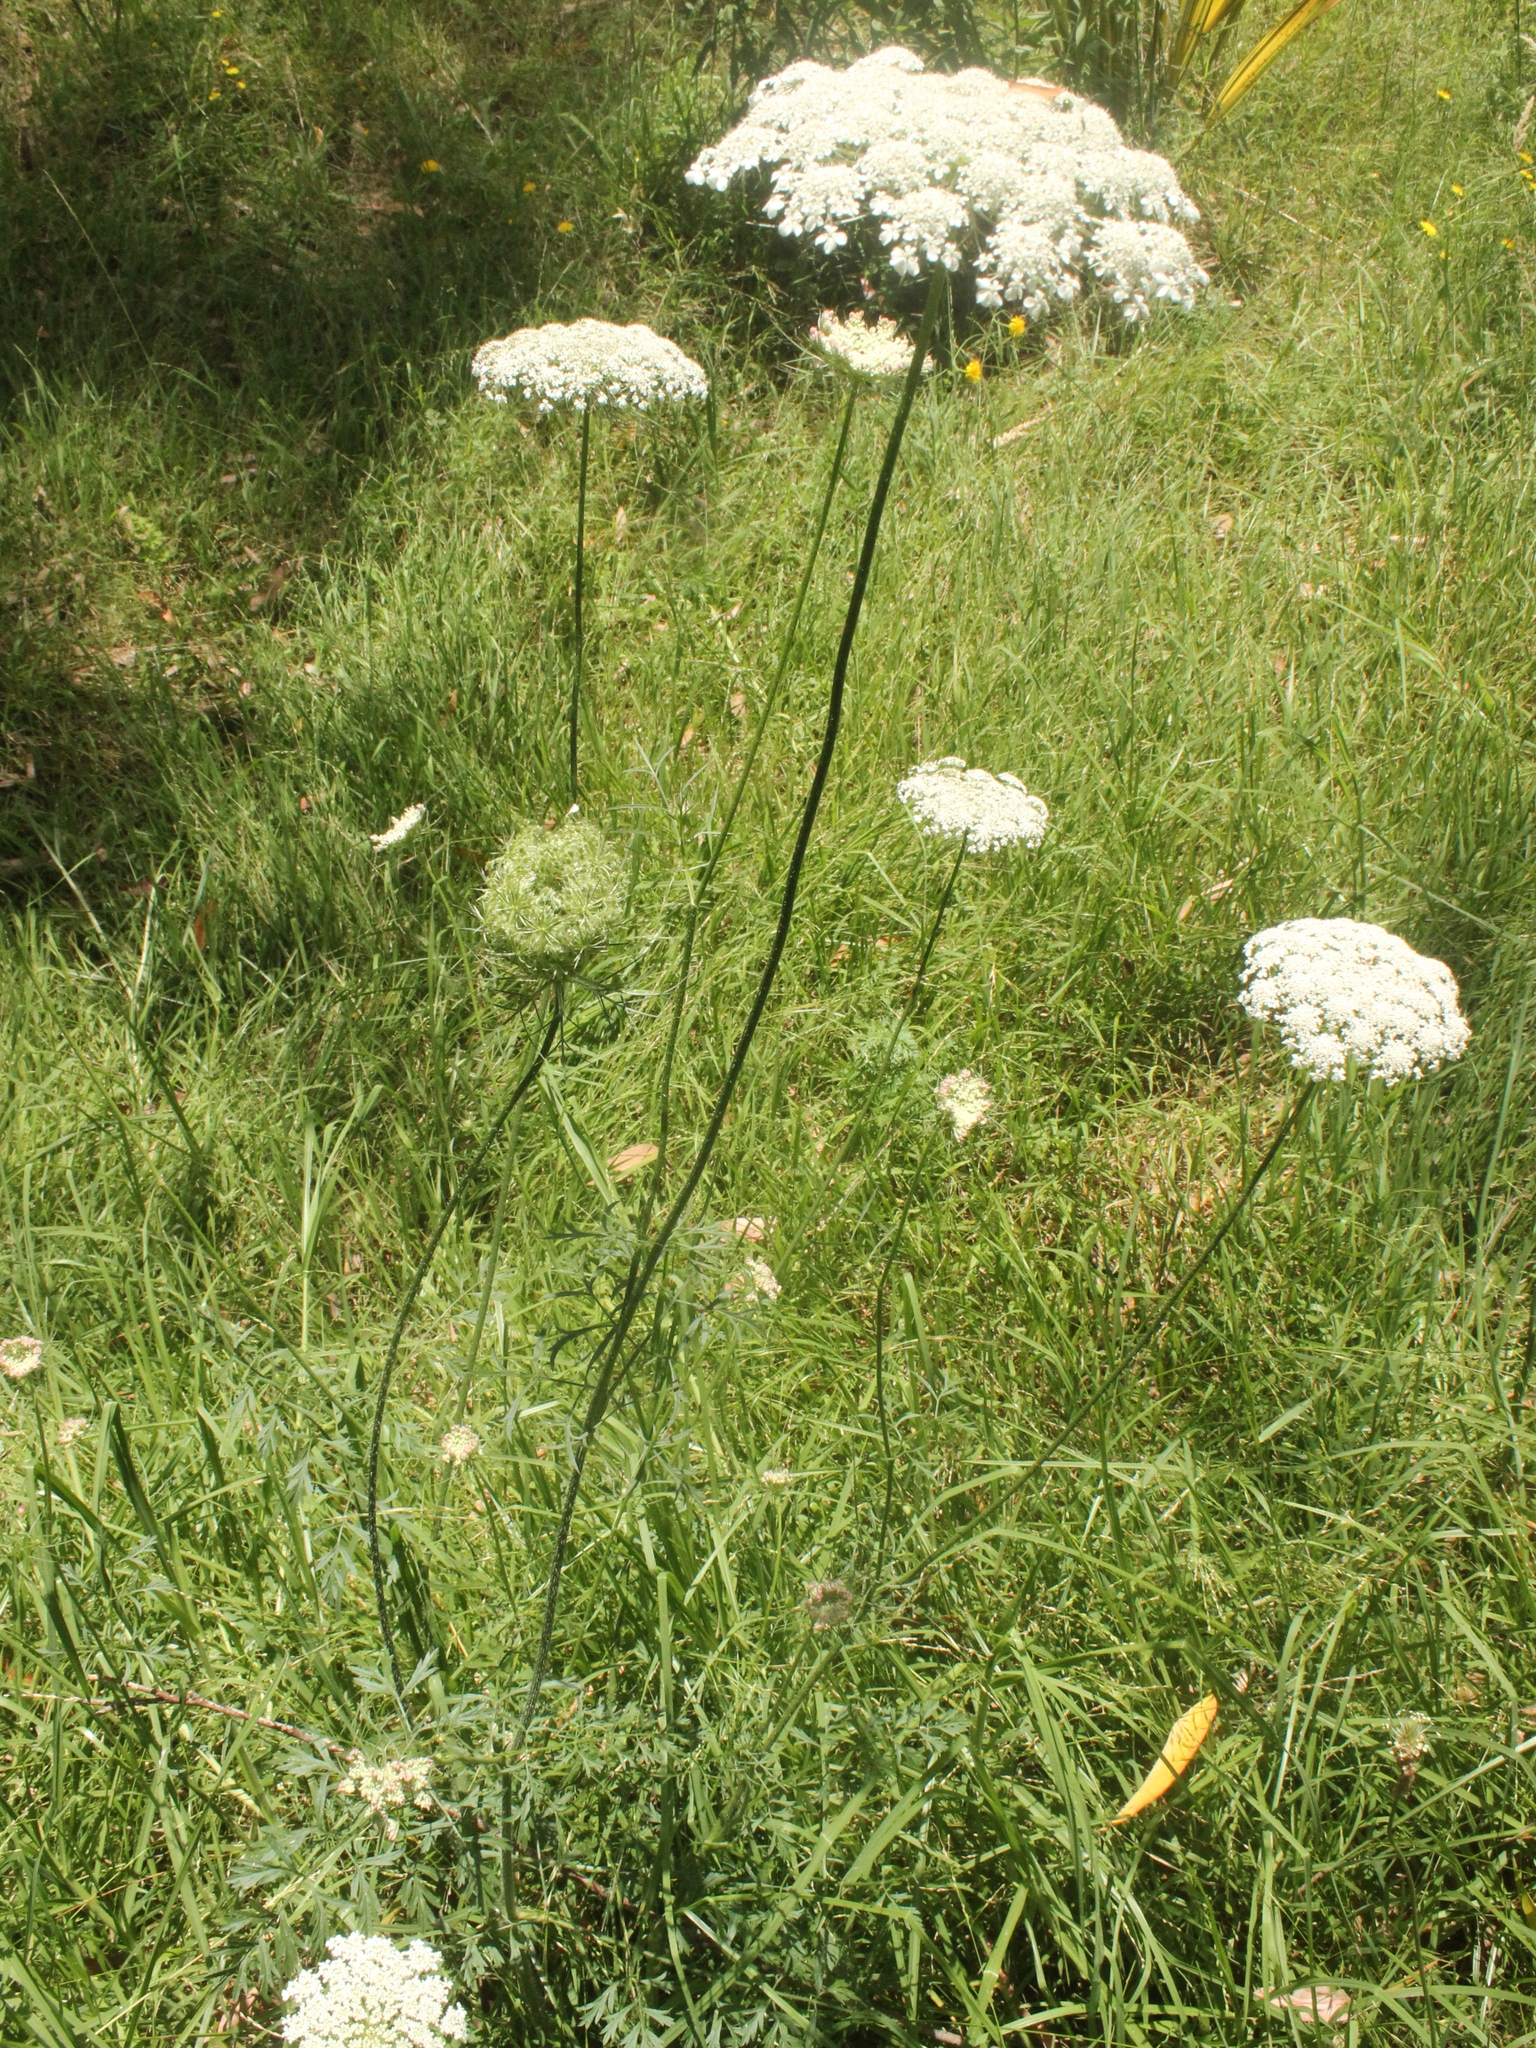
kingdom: Plantae
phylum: Tracheophyta
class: Magnoliopsida
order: Apiales
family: Apiaceae
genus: Daucus
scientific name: Daucus carota
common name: Wild carrot
